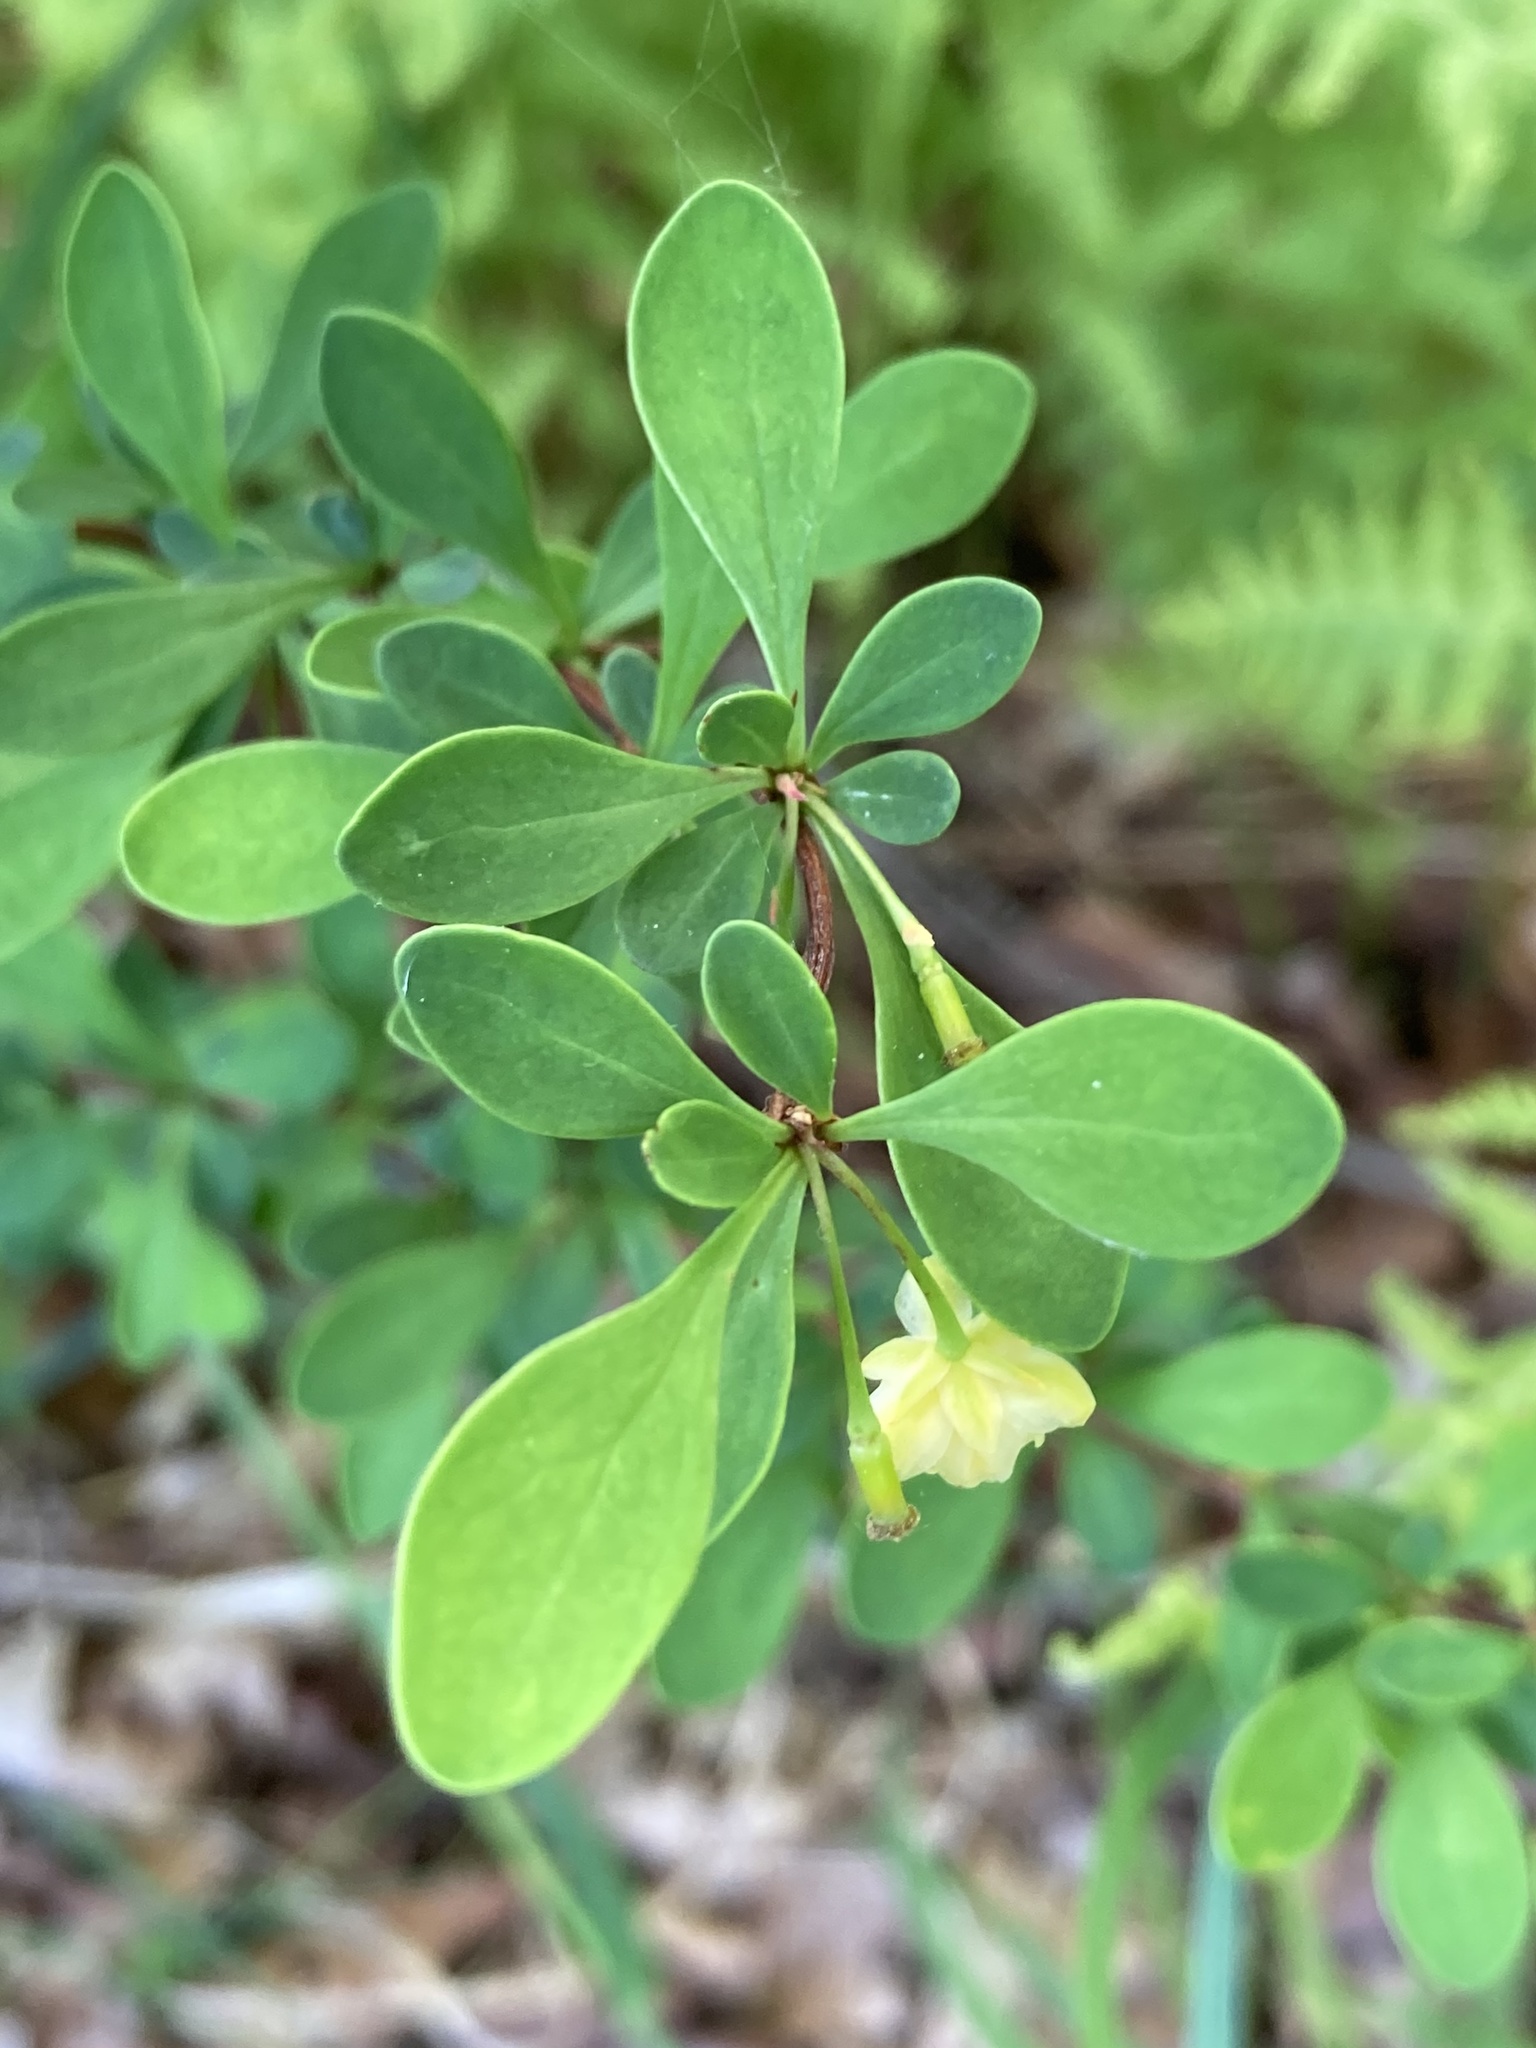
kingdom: Plantae
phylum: Tracheophyta
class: Magnoliopsida
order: Ranunculales
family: Berberidaceae
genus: Berberis
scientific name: Berberis thunbergii
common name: Japanese barberry
